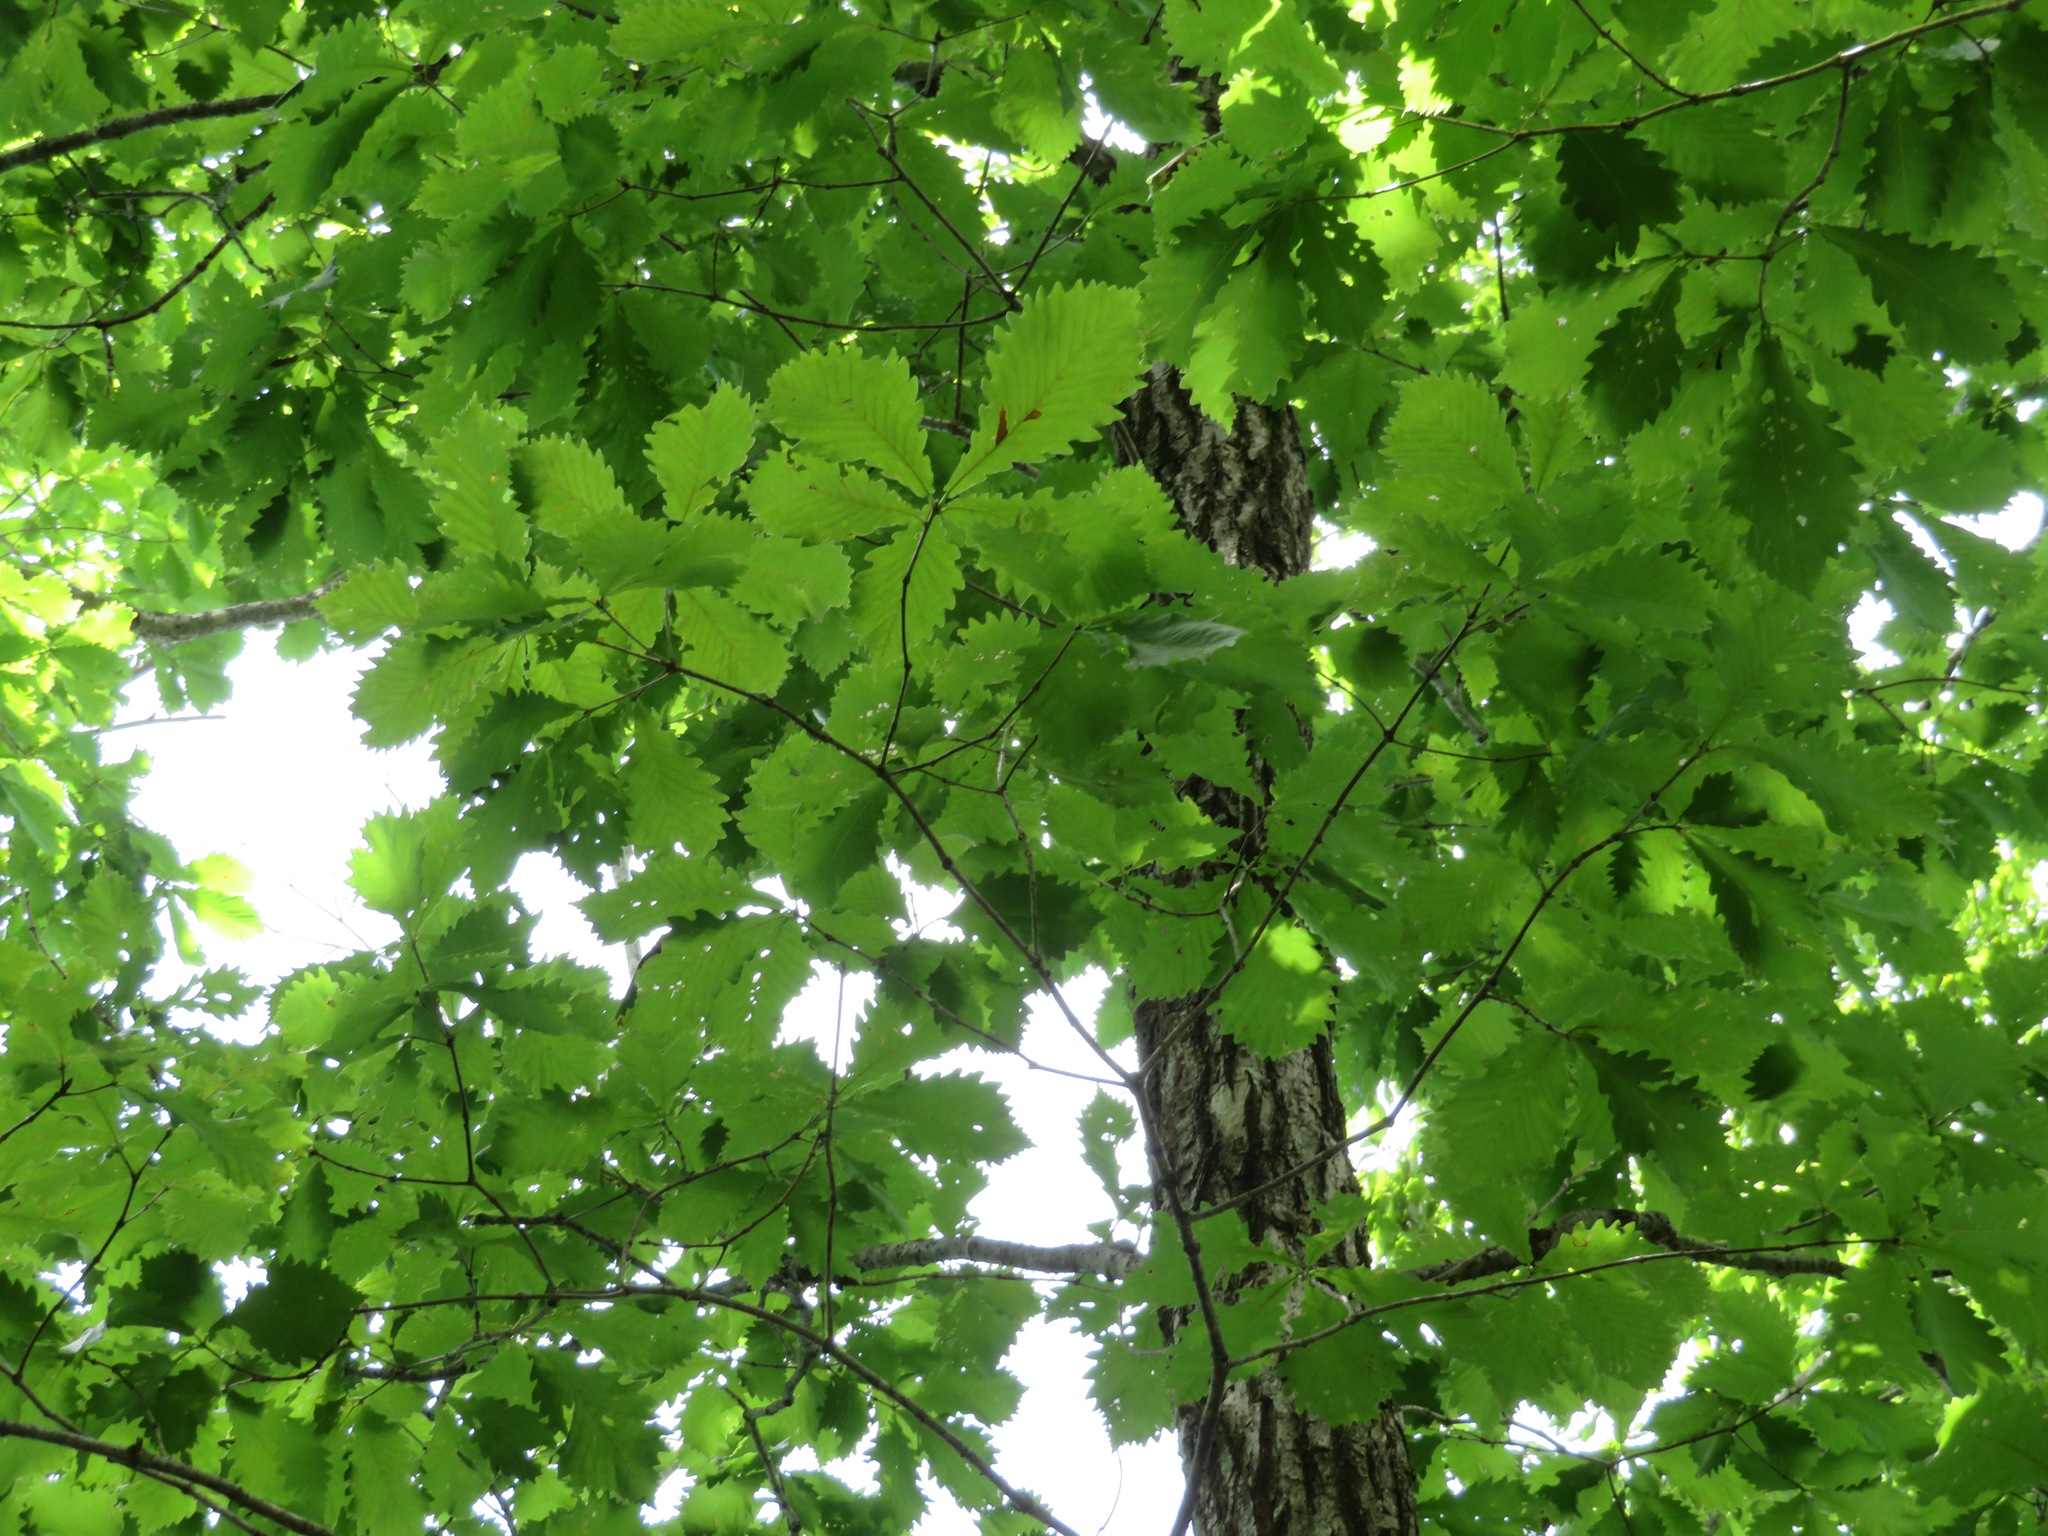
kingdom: Plantae
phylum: Tracheophyta
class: Magnoliopsida
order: Fagales
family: Fagaceae
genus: Quercus
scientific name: Quercus crispula
